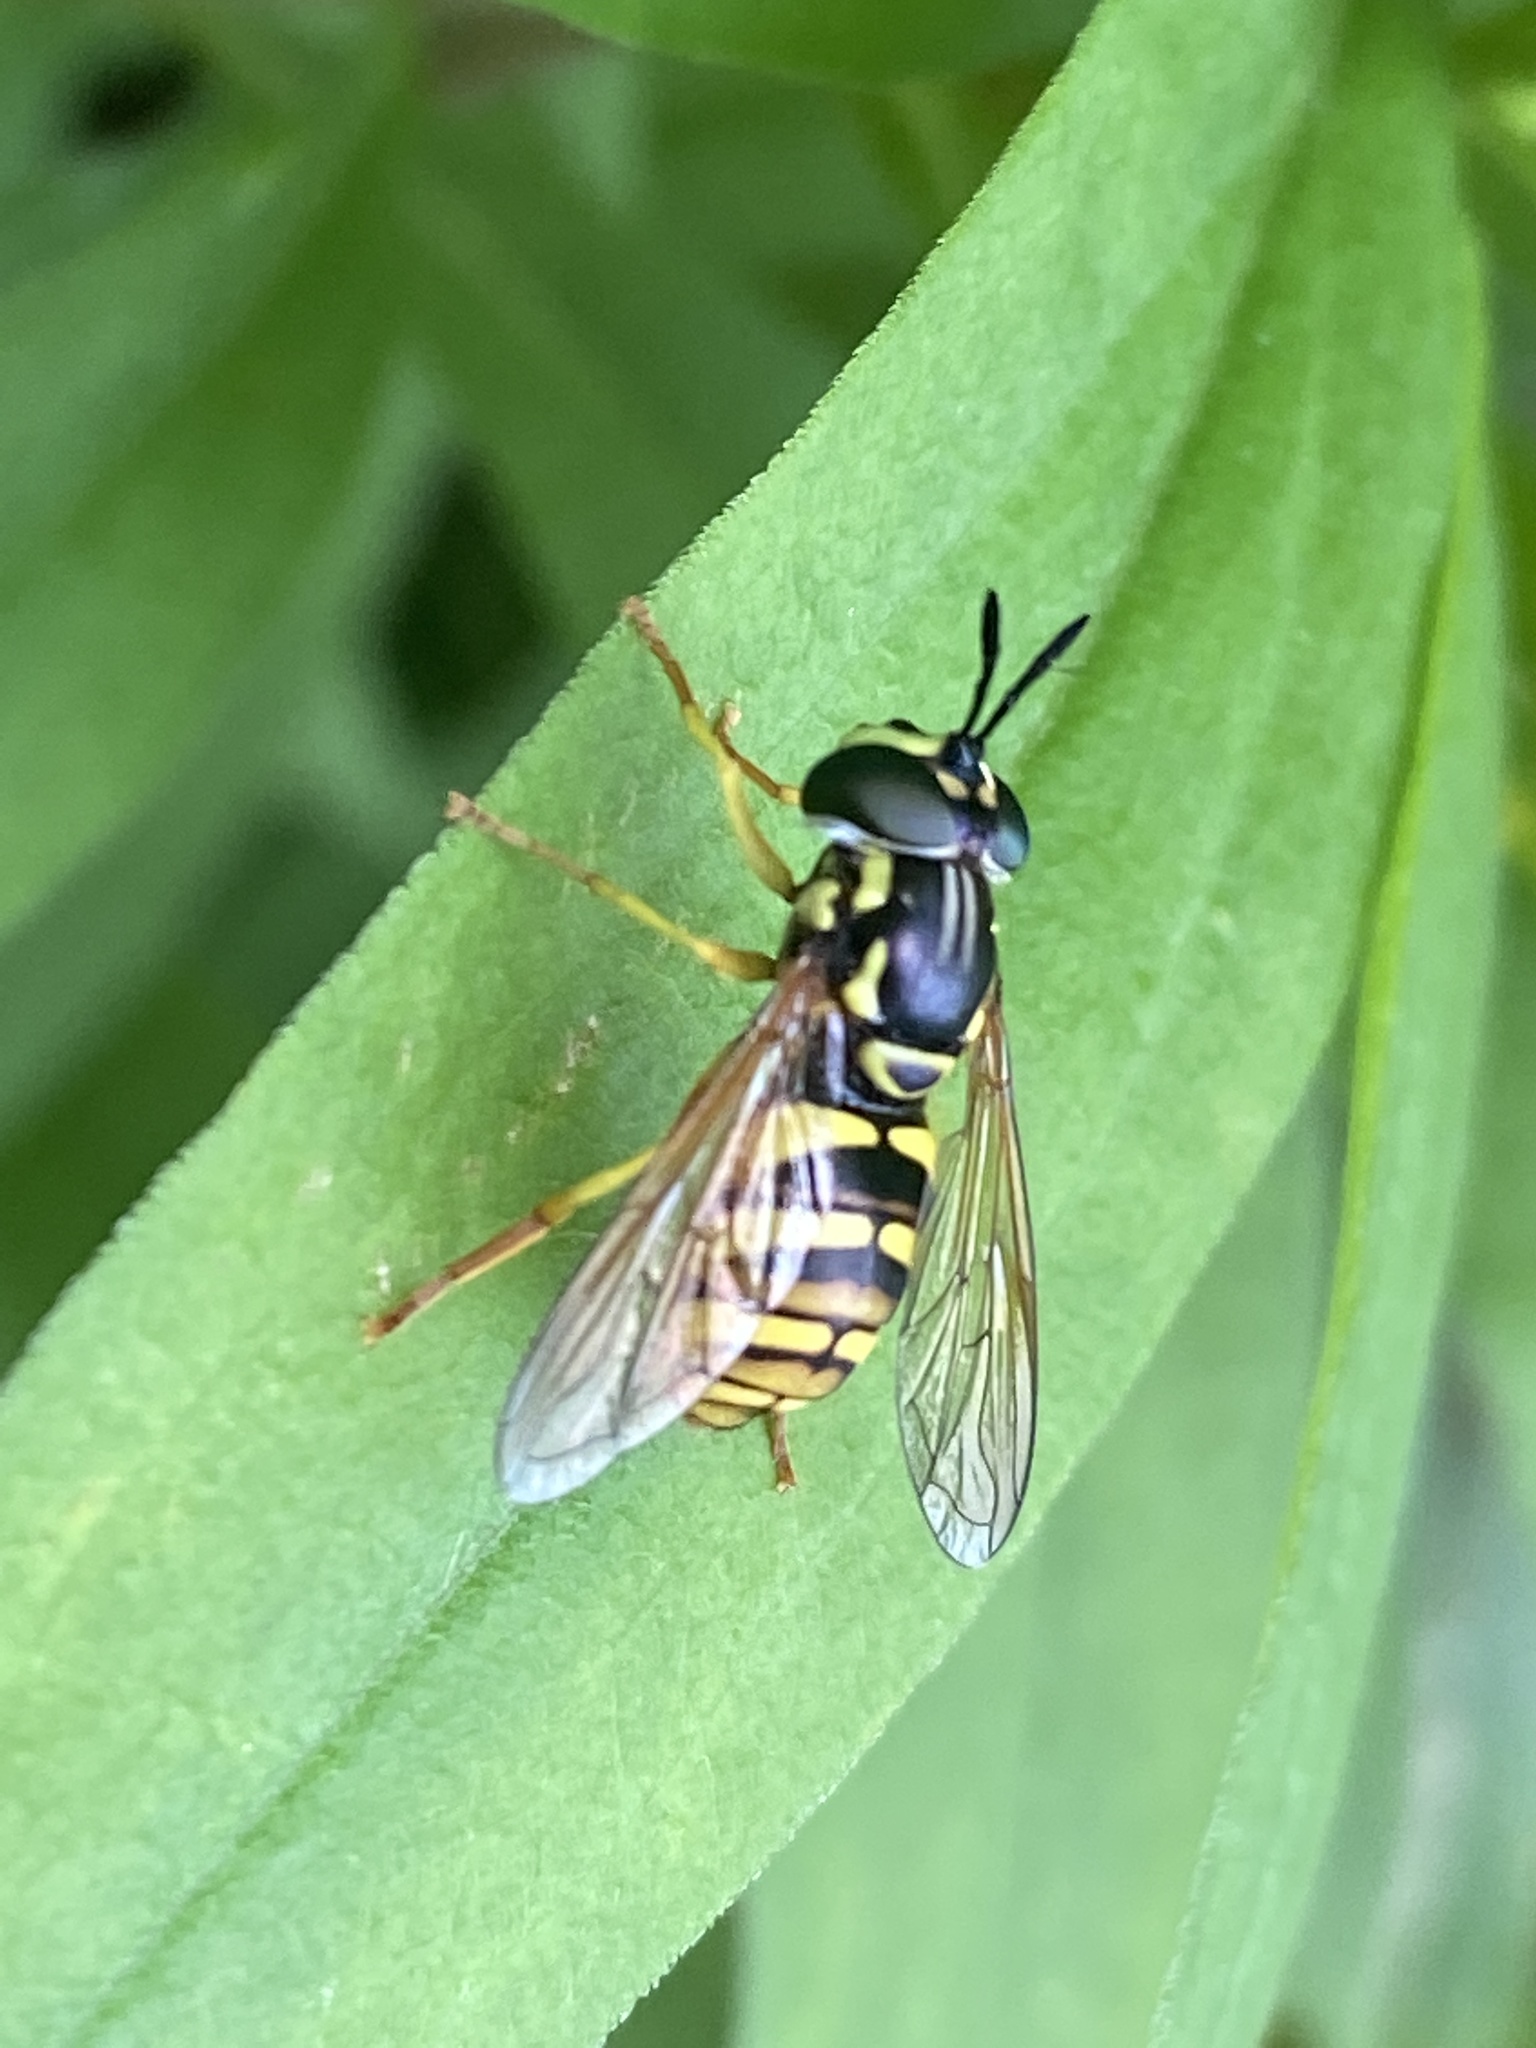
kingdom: Animalia
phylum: Arthropoda
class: Insecta
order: Diptera
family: Syrphidae
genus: Chrysotoxum
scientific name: Chrysotoxum verralli
